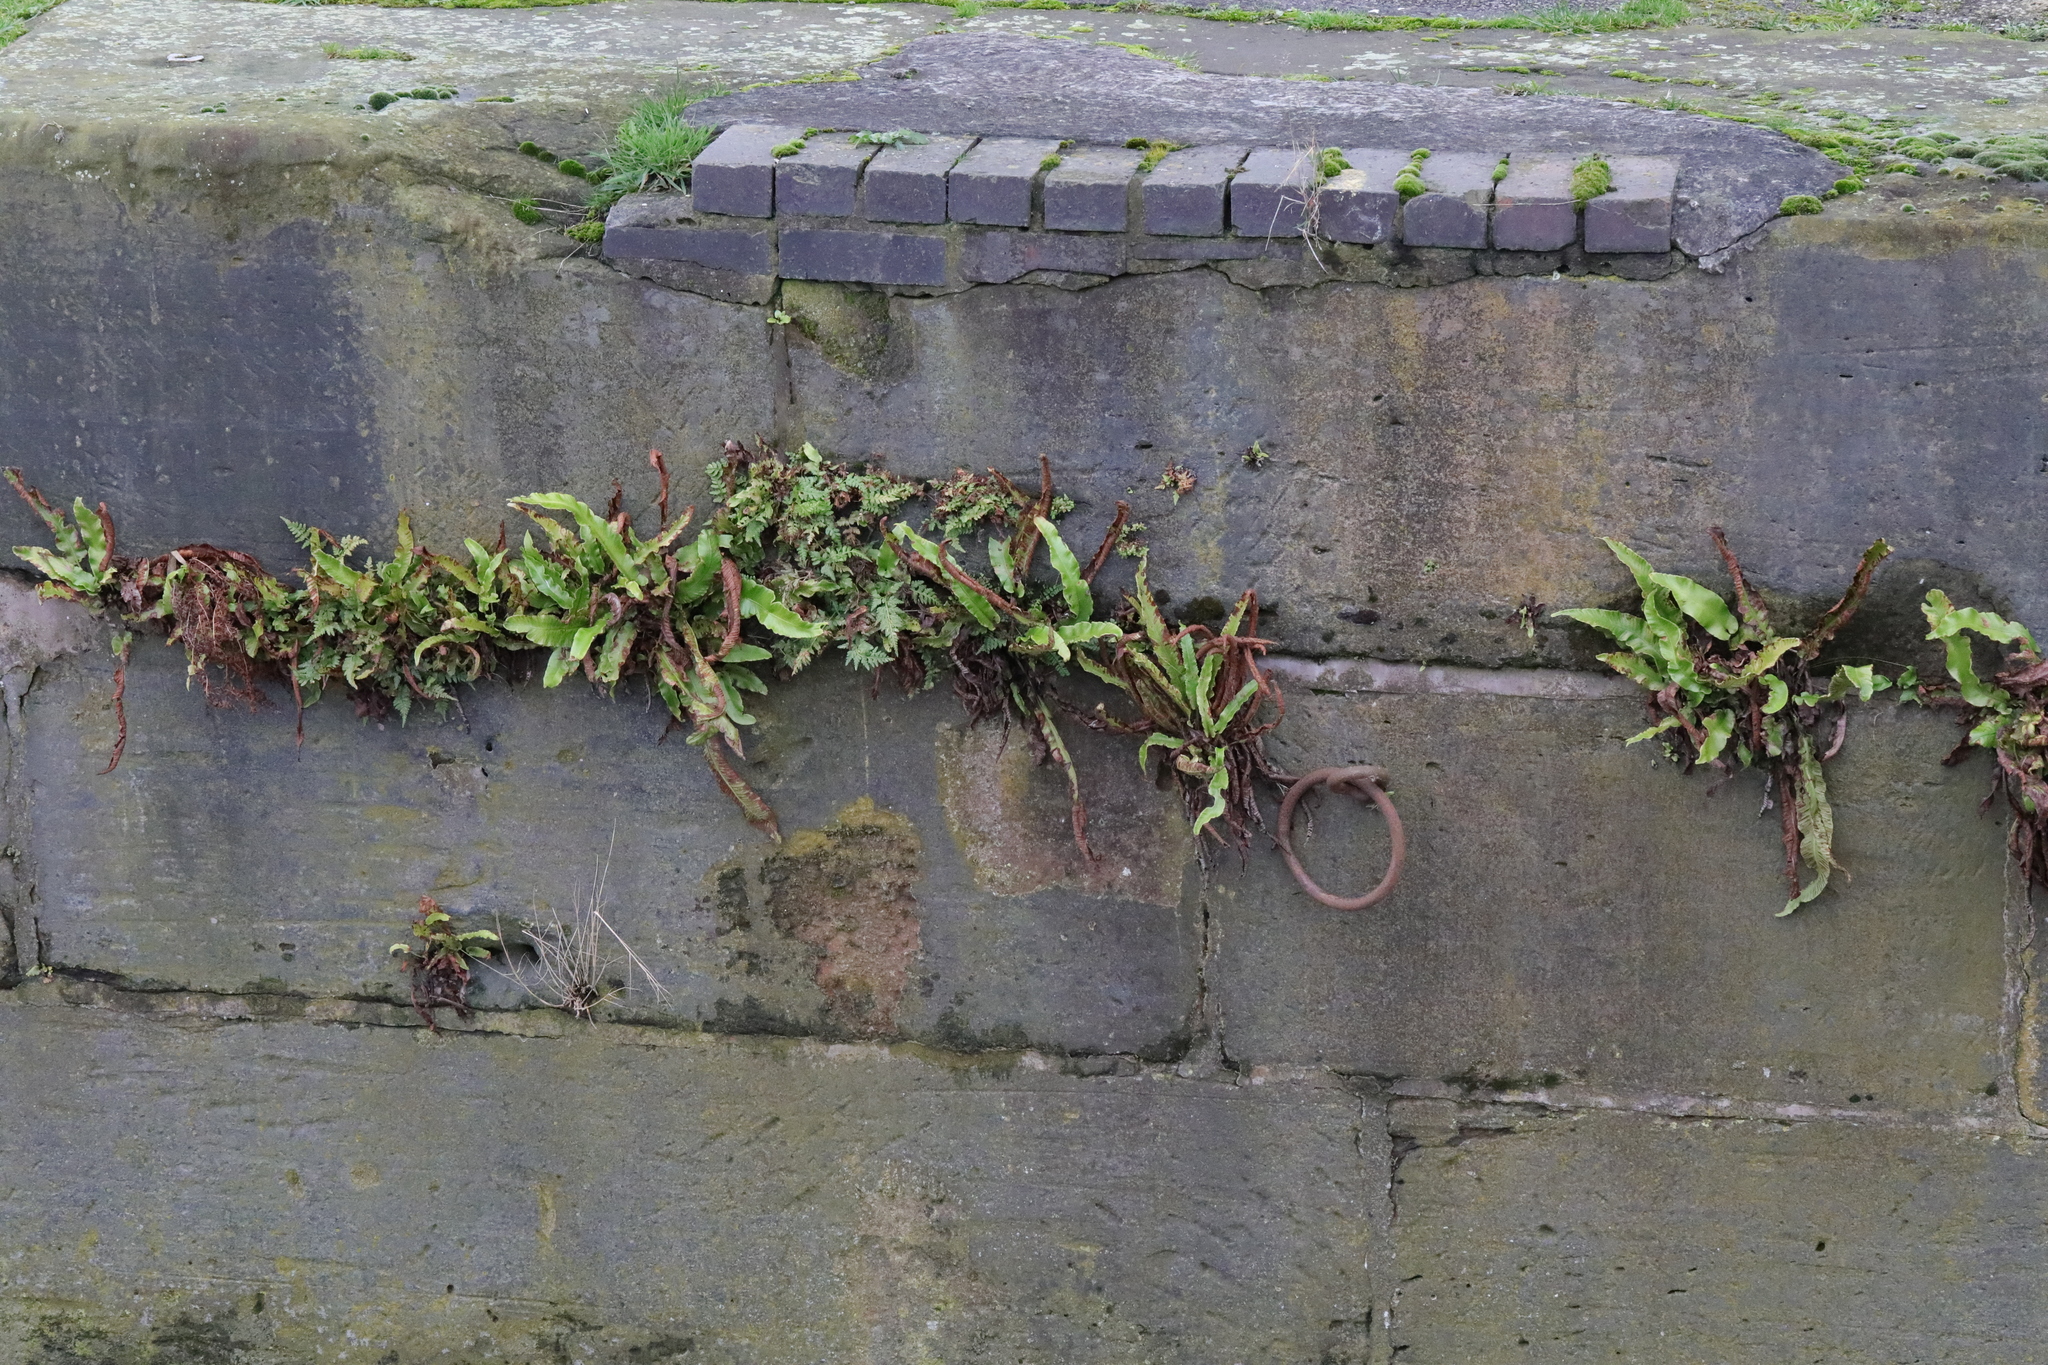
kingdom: Plantae
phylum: Tracheophyta
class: Polypodiopsida
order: Polypodiales
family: Aspleniaceae
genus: Asplenium
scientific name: Asplenium scolopendrium
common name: Hart's-tongue fern
